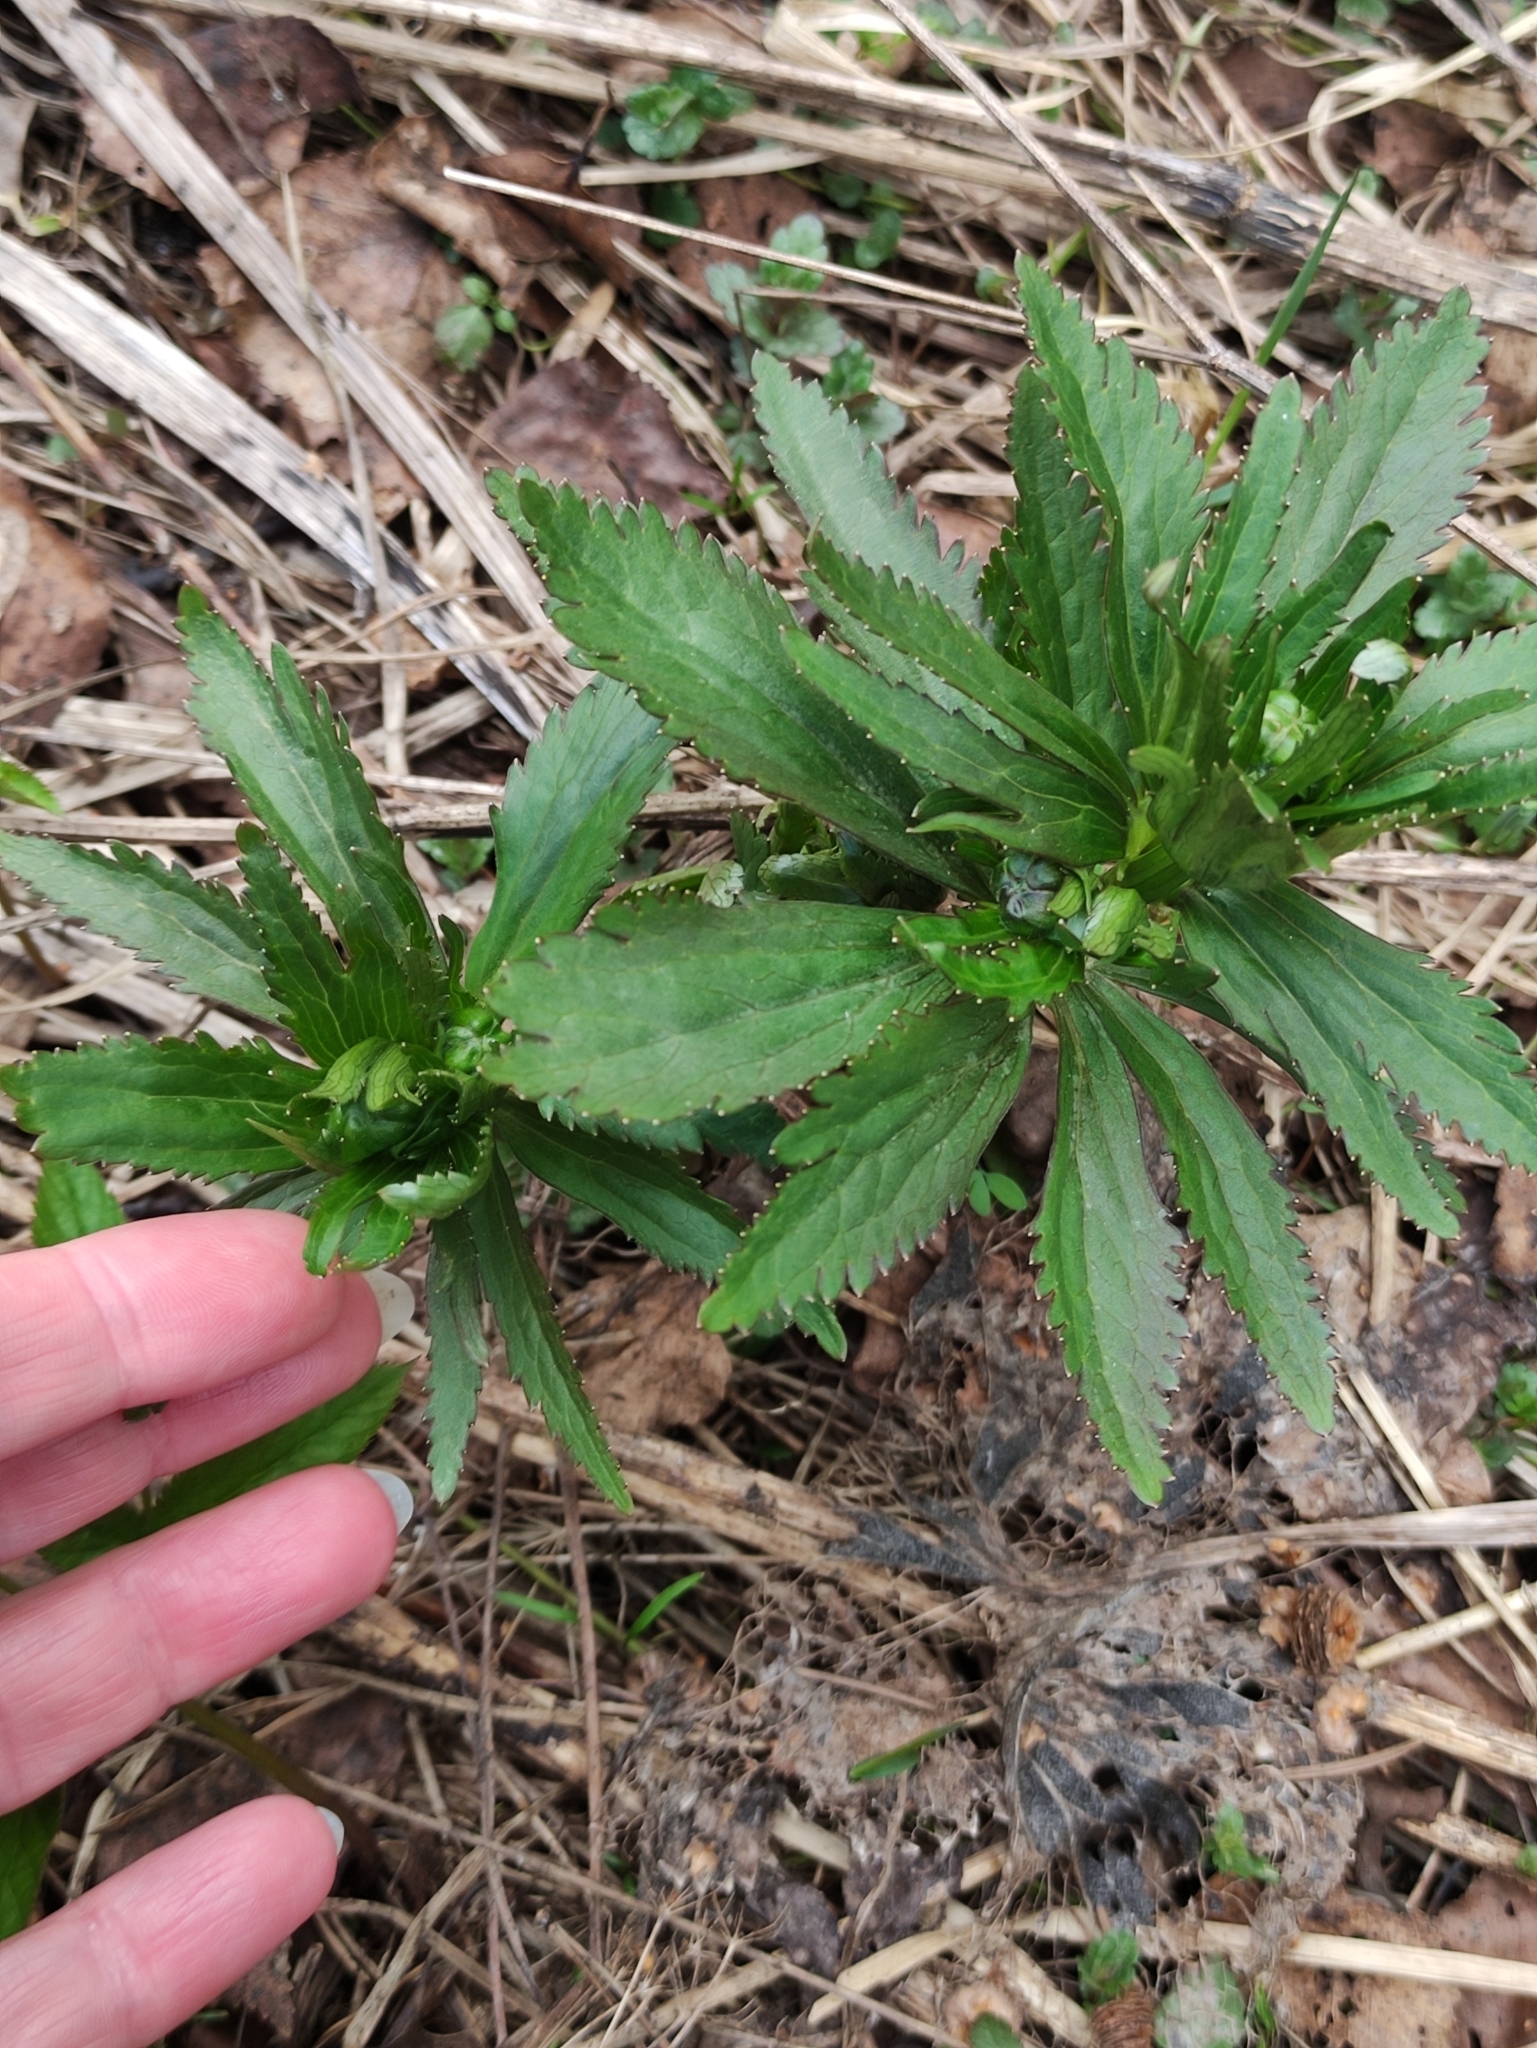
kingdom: Plantae
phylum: Tracheophyta
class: Magnoliopsida
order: Ranunculales
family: Ranunculaceae
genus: Ranunculus
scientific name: Ranunculus cassubicus
